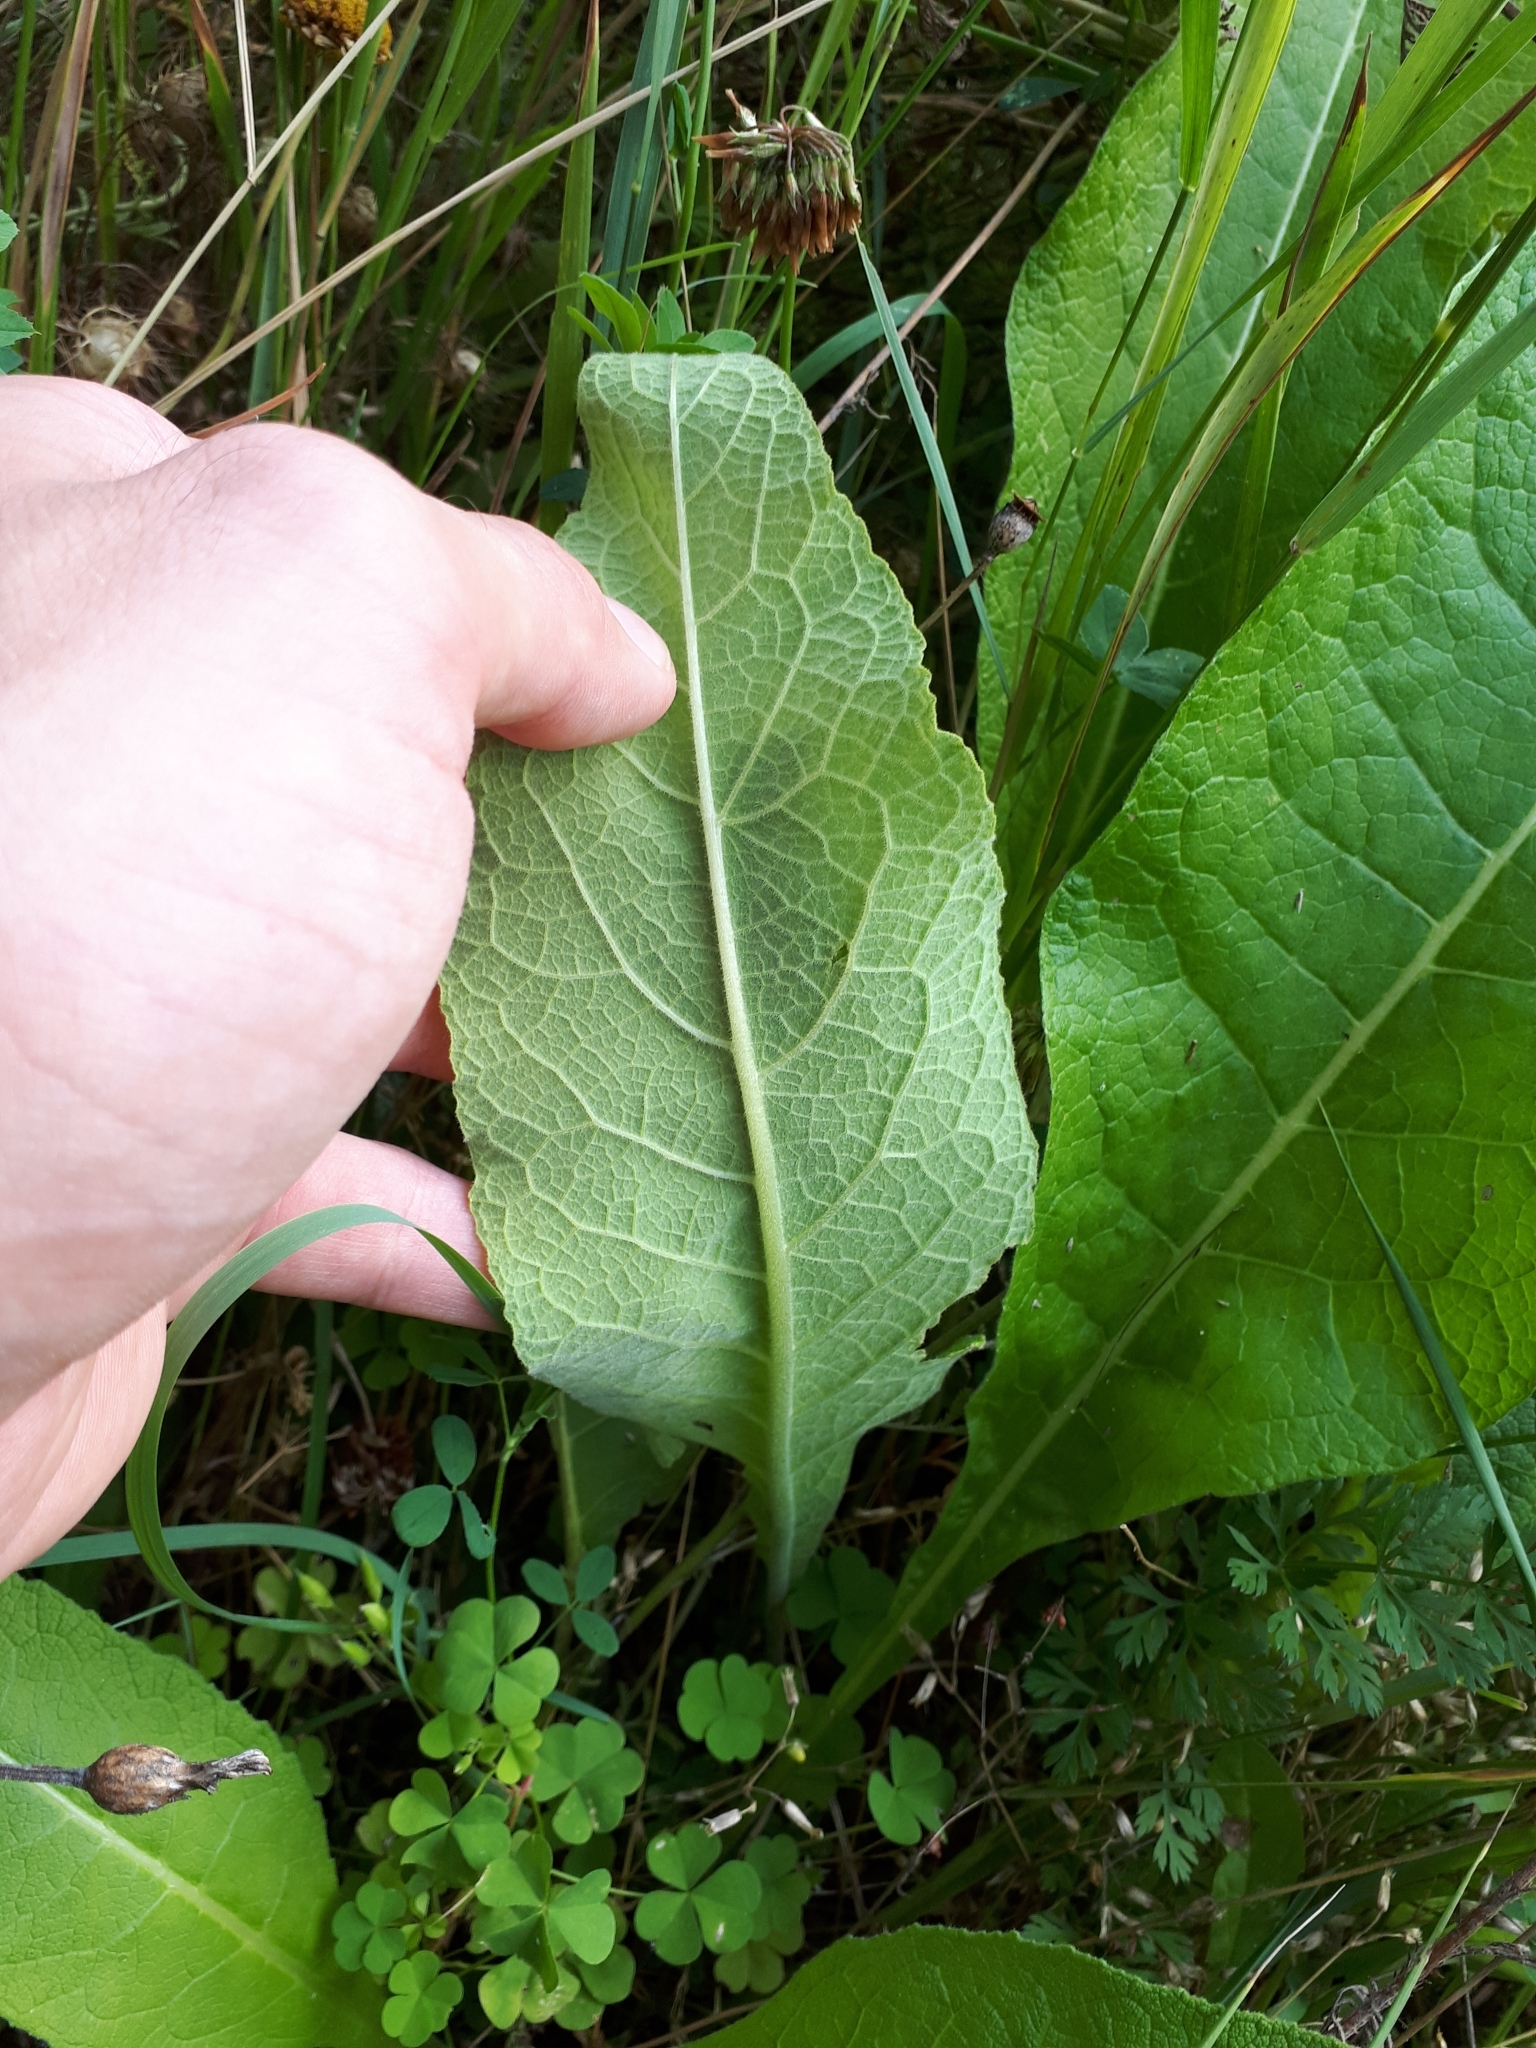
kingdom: Plantae
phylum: Tracheophyta
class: Magnoliopsida
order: Asterales
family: Asteraceae
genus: Inula
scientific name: Inula helenium
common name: Elecampane
